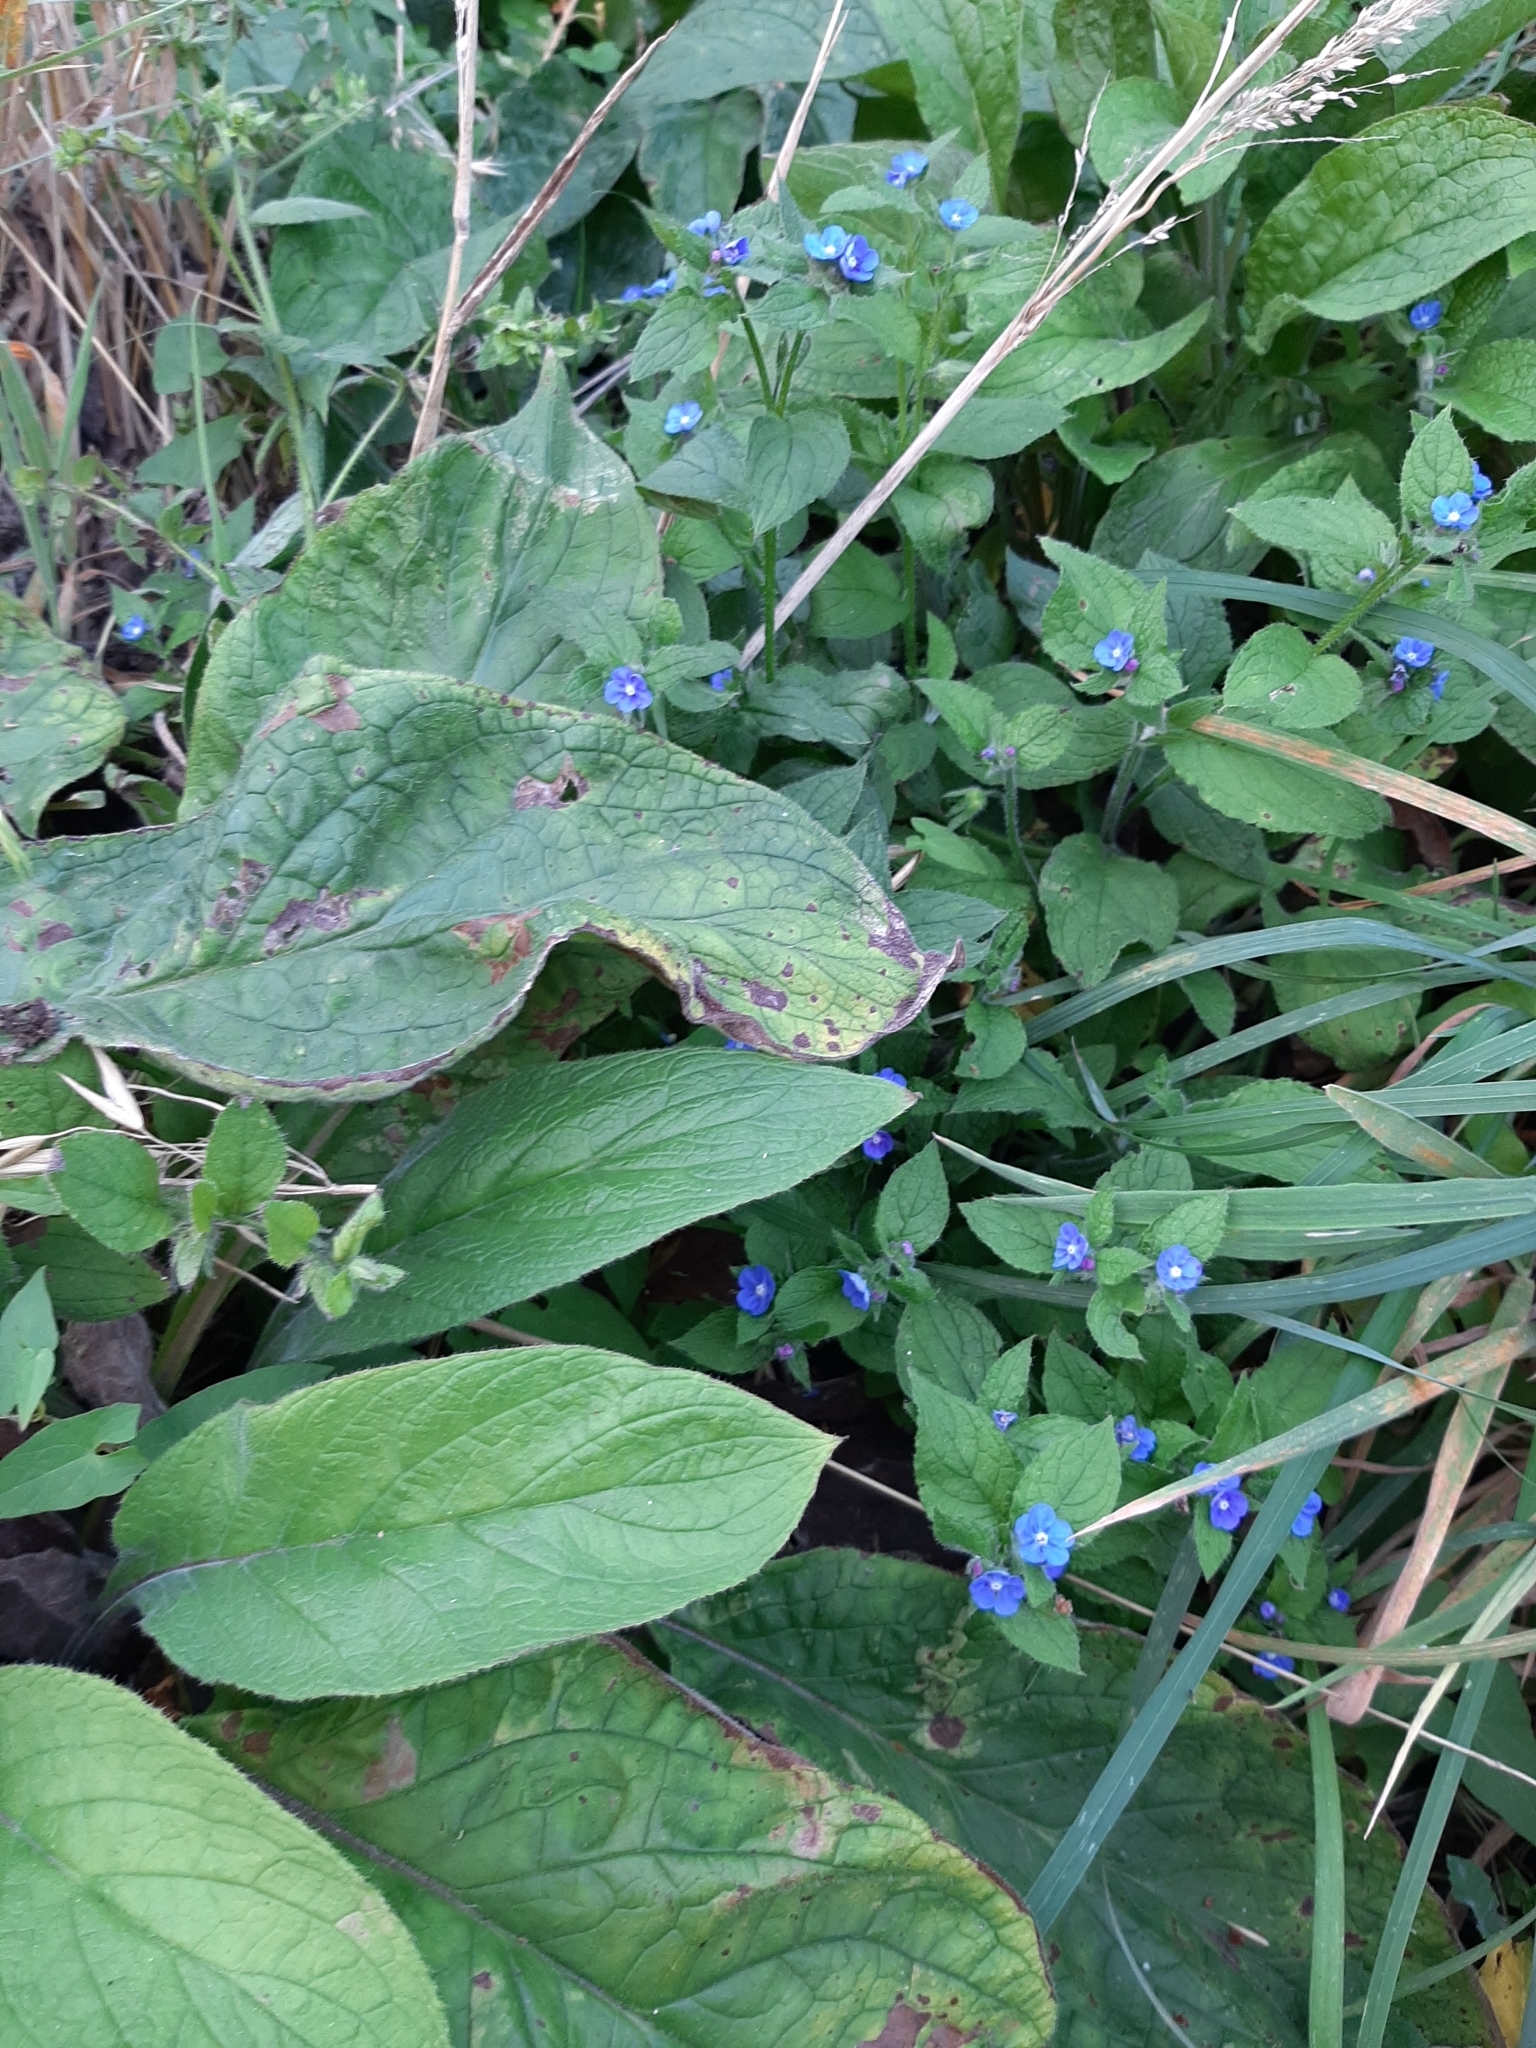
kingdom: Plantae
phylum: Tracheophyta
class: Magnoliopsida
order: Boraginales
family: Boraginaceae
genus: Pentaglottis
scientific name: Pentaglottis sempervirens
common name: Green alkanet
